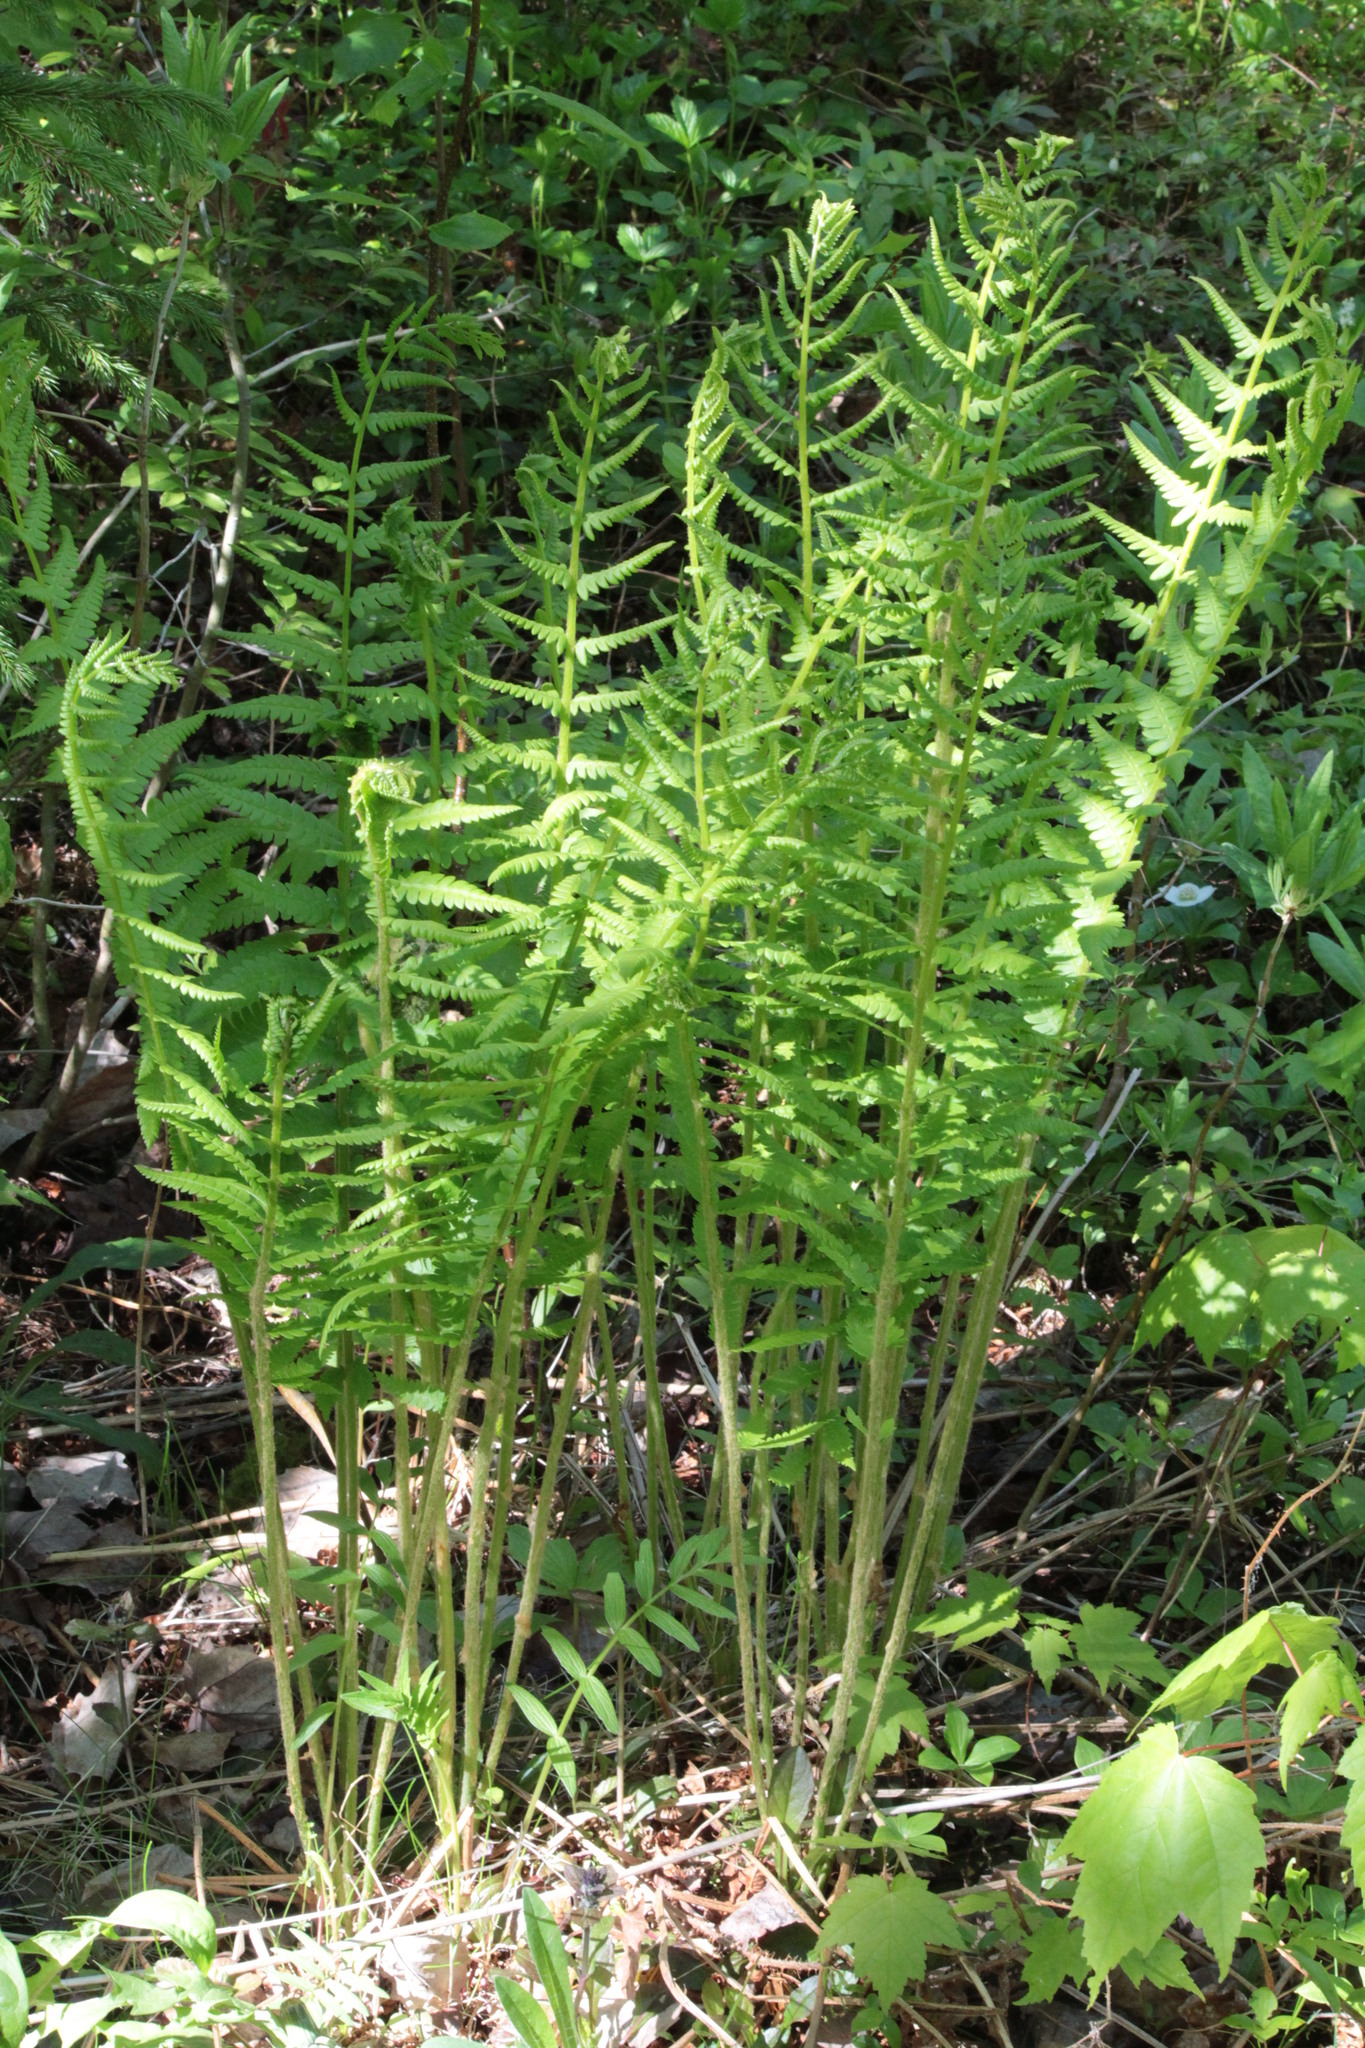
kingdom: Plantae
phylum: Tracheophyta
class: Polypodiopsida
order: Osmundales
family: Osmundaceae
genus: Osmundastrum
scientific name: Osmundastrum cinnamomeum
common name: Cinnamon fern
